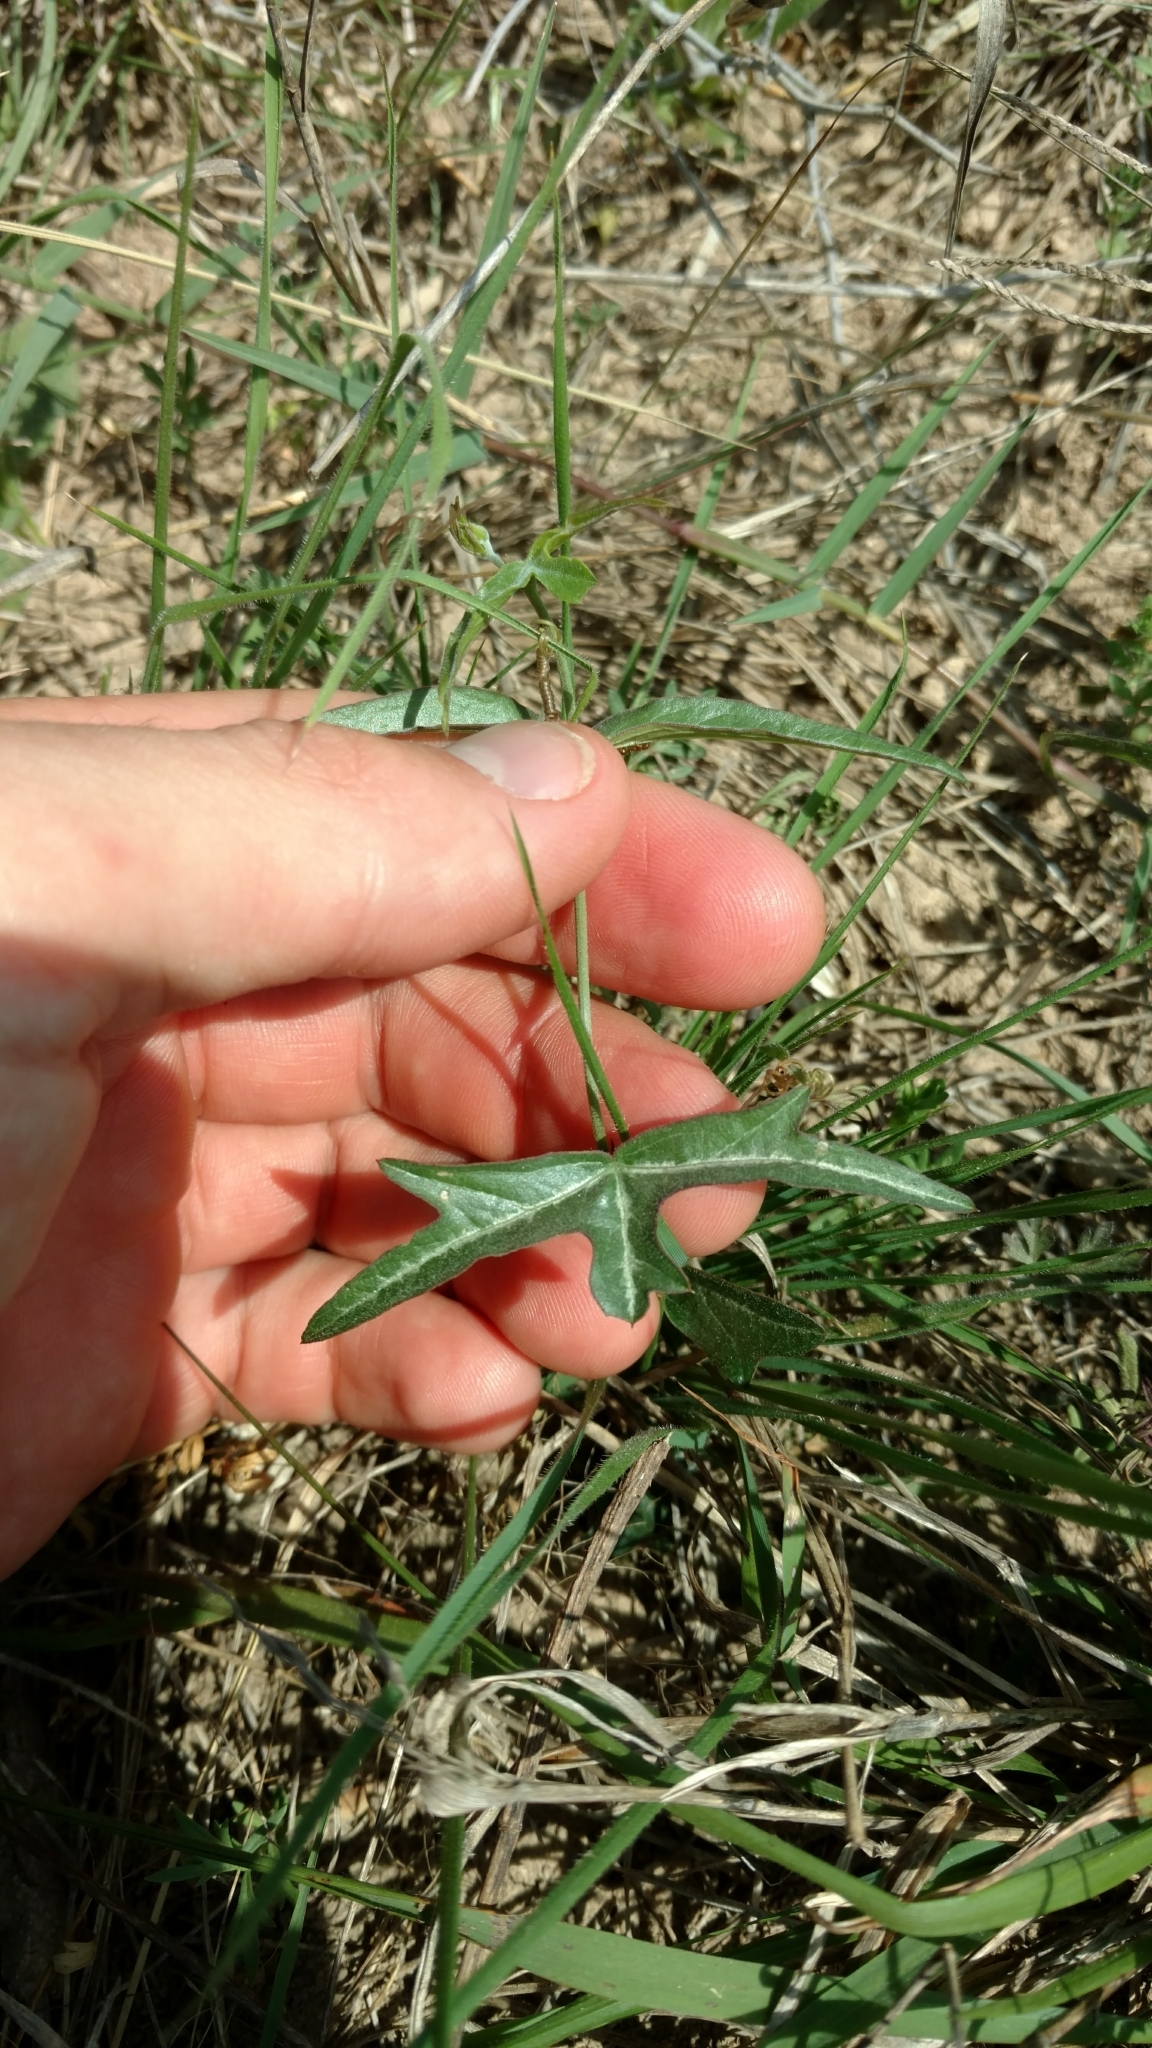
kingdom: Plantae
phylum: Tracheophyta
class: Magnoliopsida
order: Malpighiales
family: Passifloraceae
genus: Passiflora
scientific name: Passiflora tenuiloba
